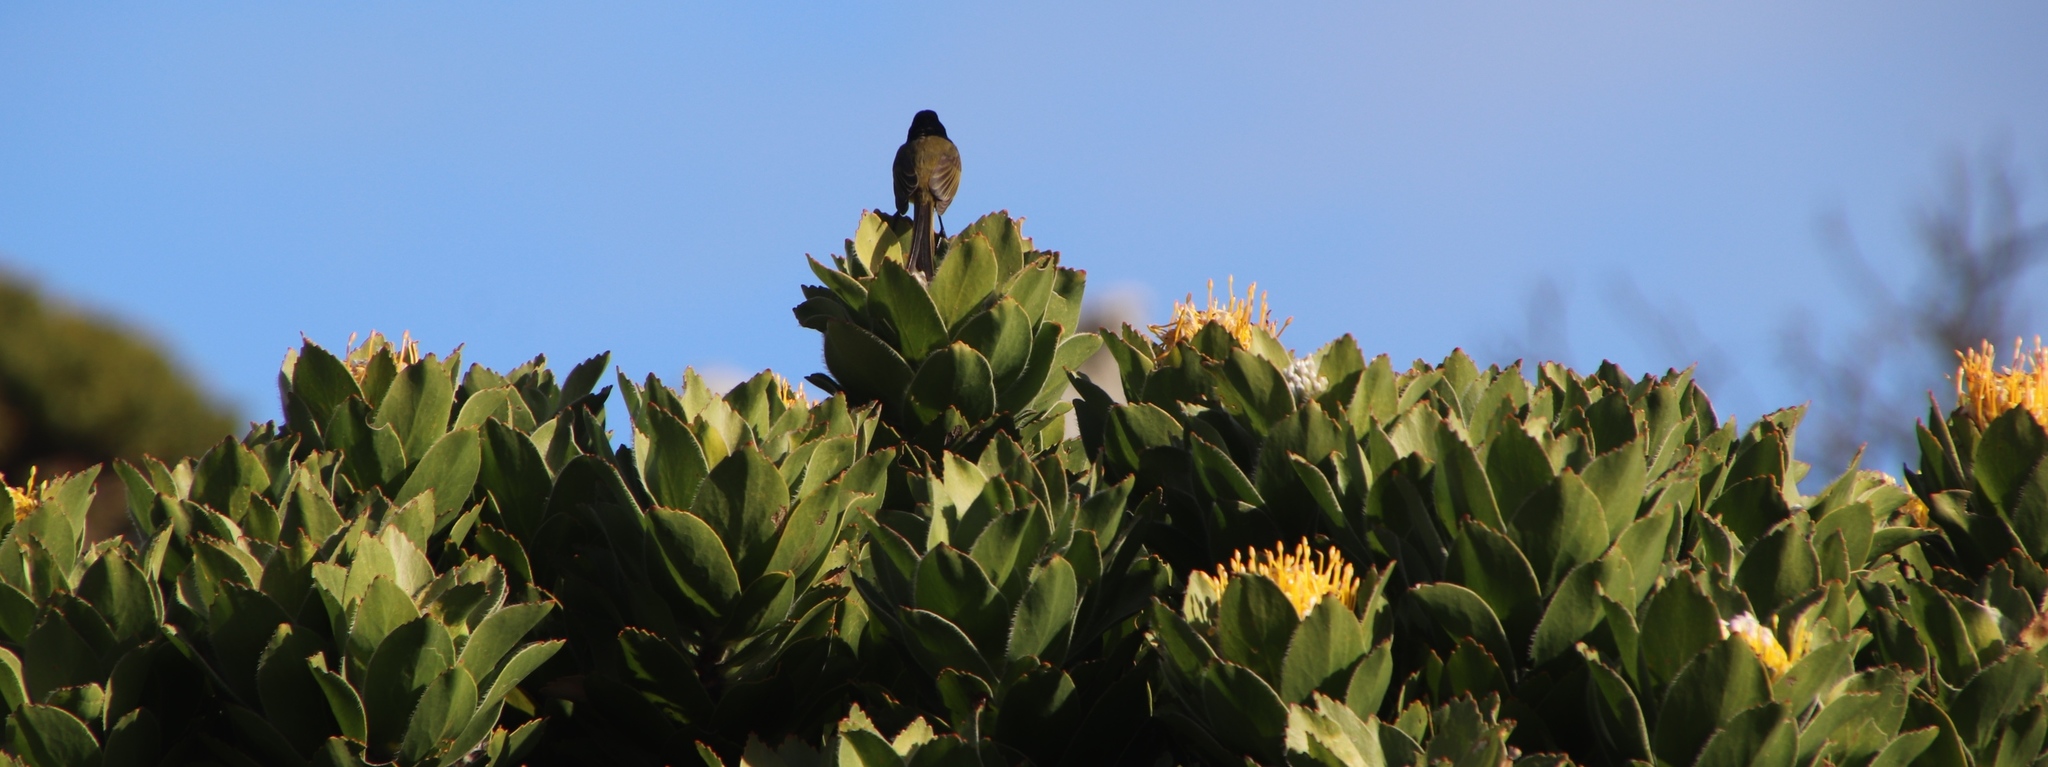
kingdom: Animalia
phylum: Chordata
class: Aves
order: Passeriformes
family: Nectariniidae
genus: Anthobaphes
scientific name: Anthobaphes violacea
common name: Orange-breasted sunbird
